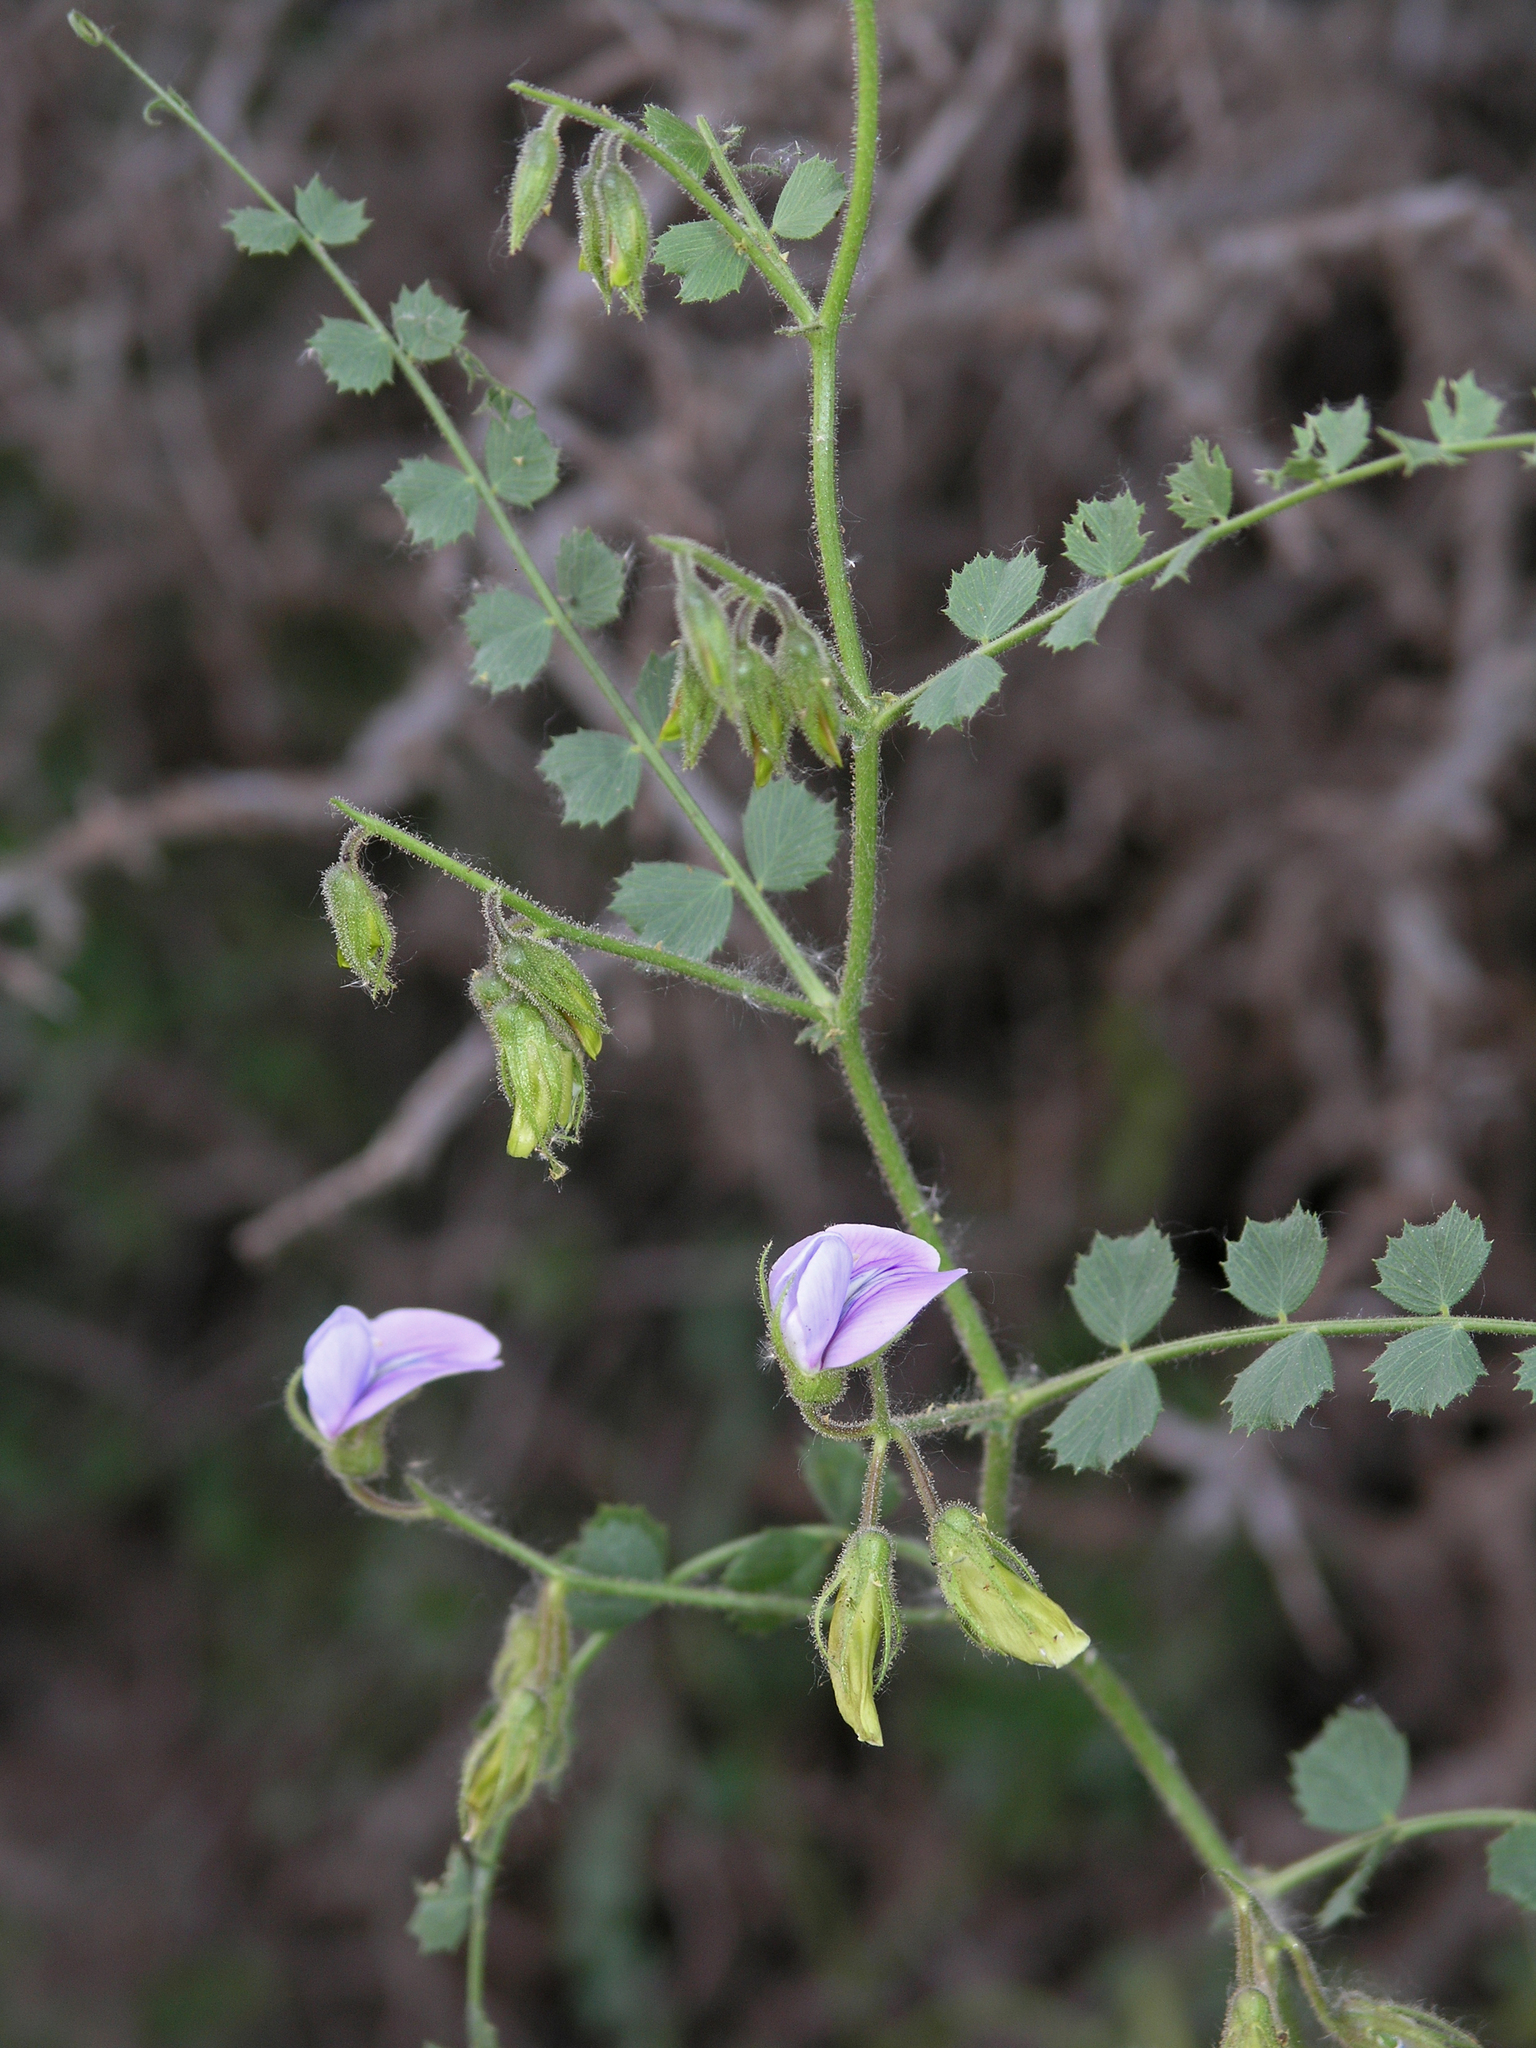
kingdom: Plantae
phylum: Tracheophyta
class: Magnoliopsida
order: Fabales
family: Fabaceae
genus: Cicer
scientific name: Cicer anatolicum
